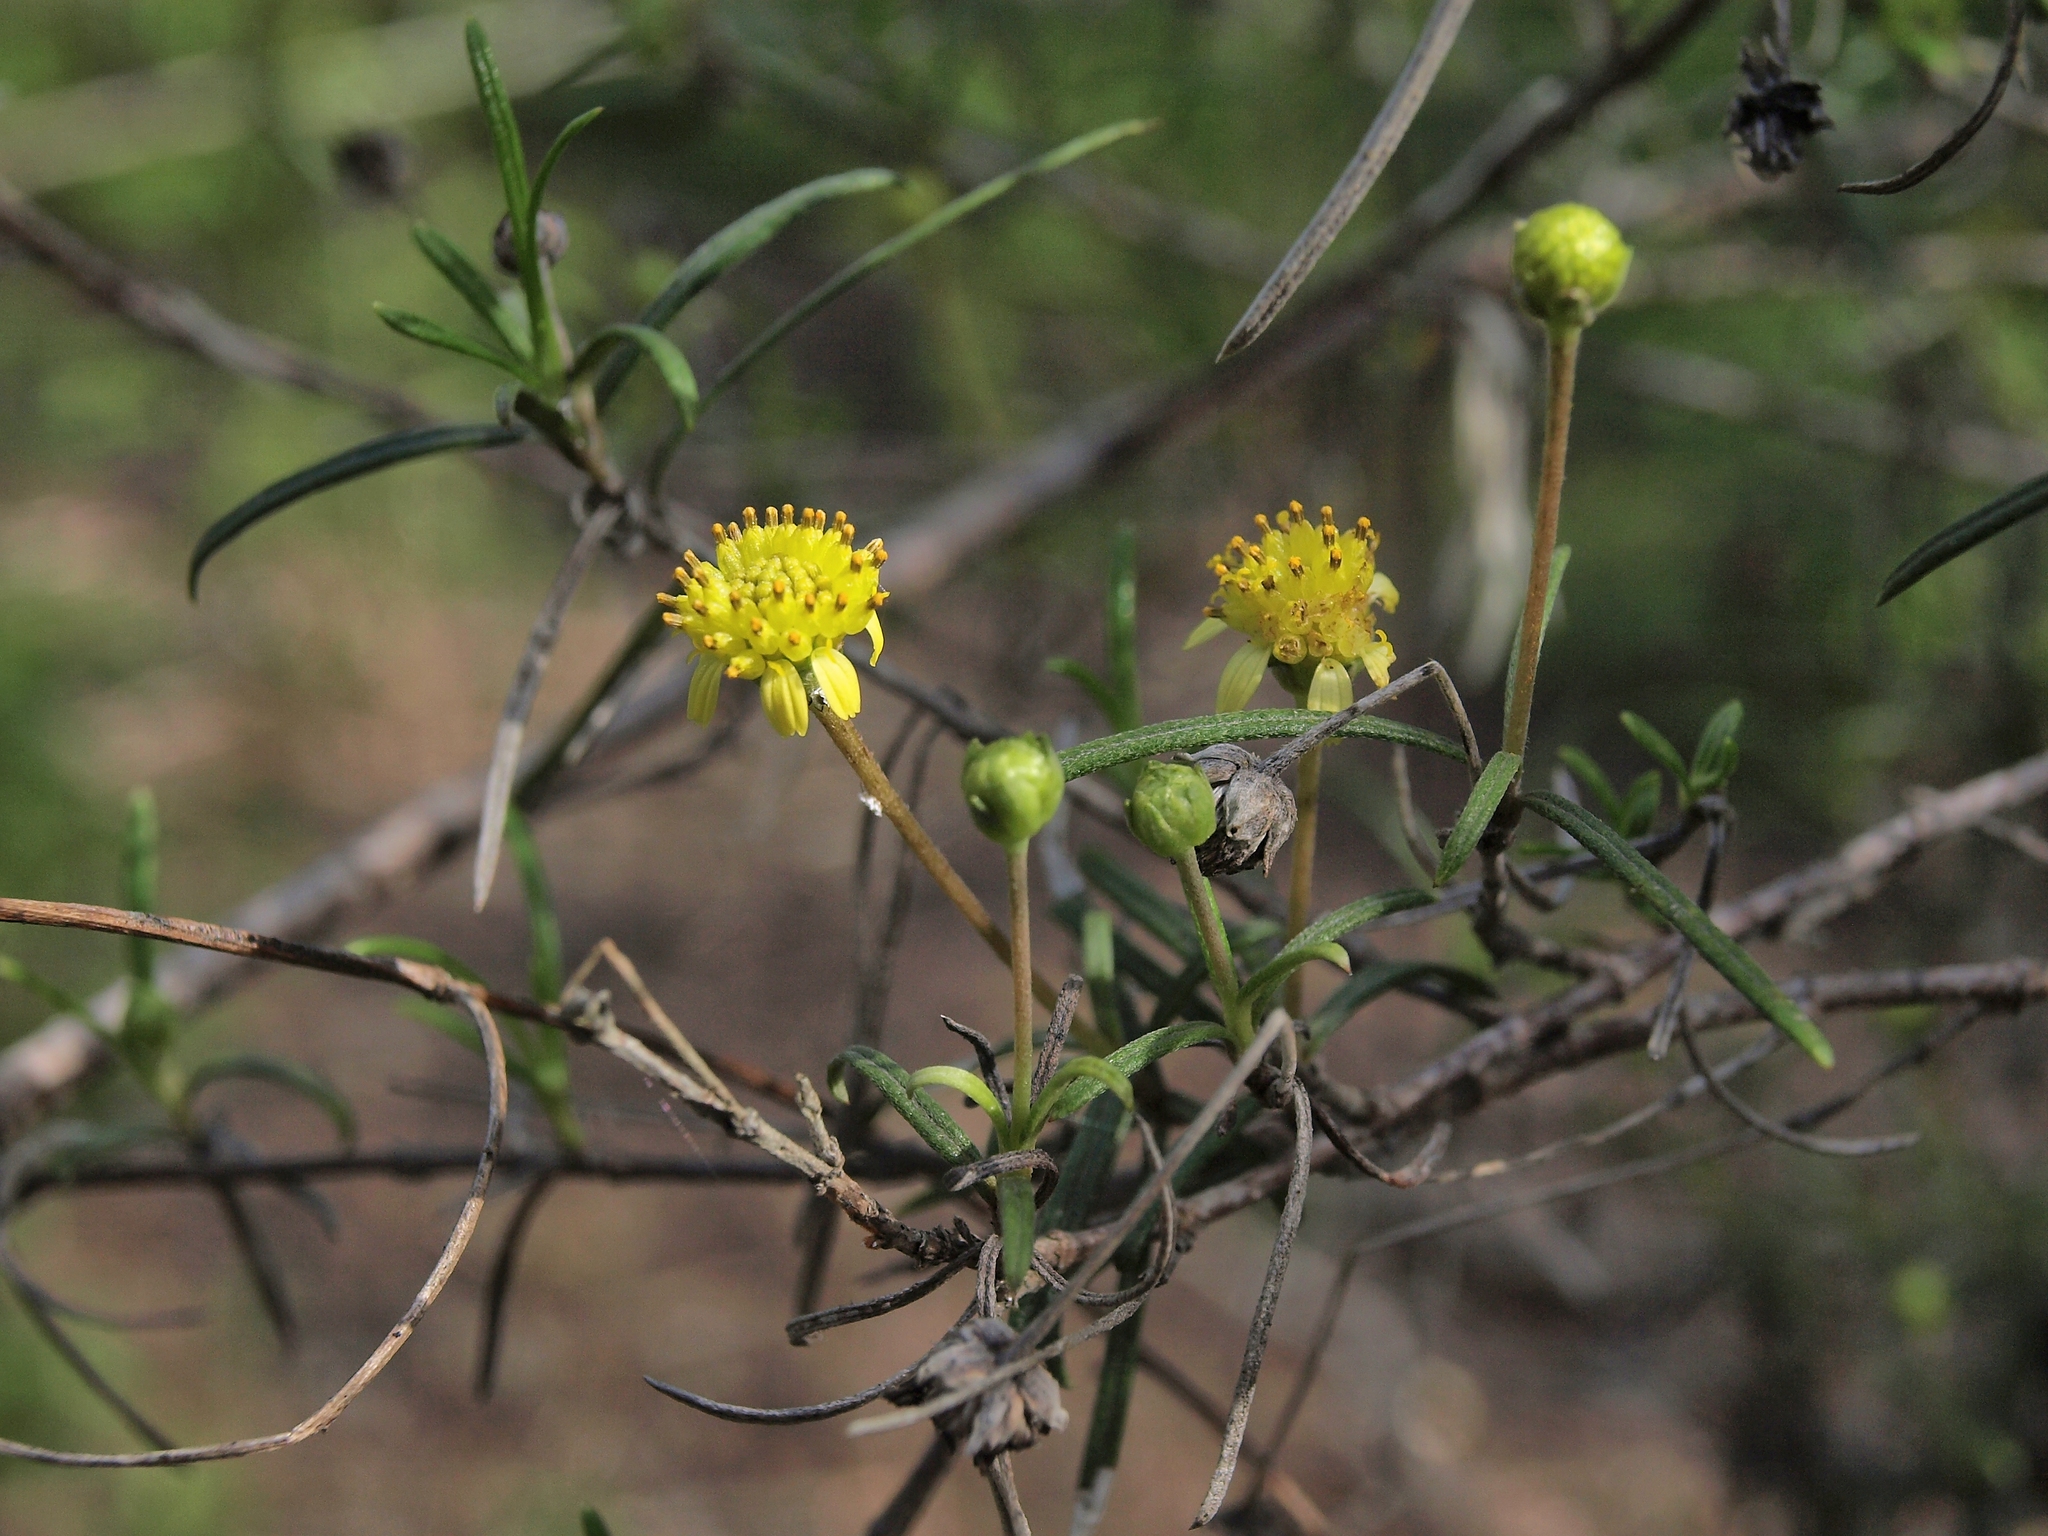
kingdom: Plantae
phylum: Tracheophyta
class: Magnoliopsida
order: Asterales
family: Asteraceae
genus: Trigonopterum
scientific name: Trigonopterum laricifolium
